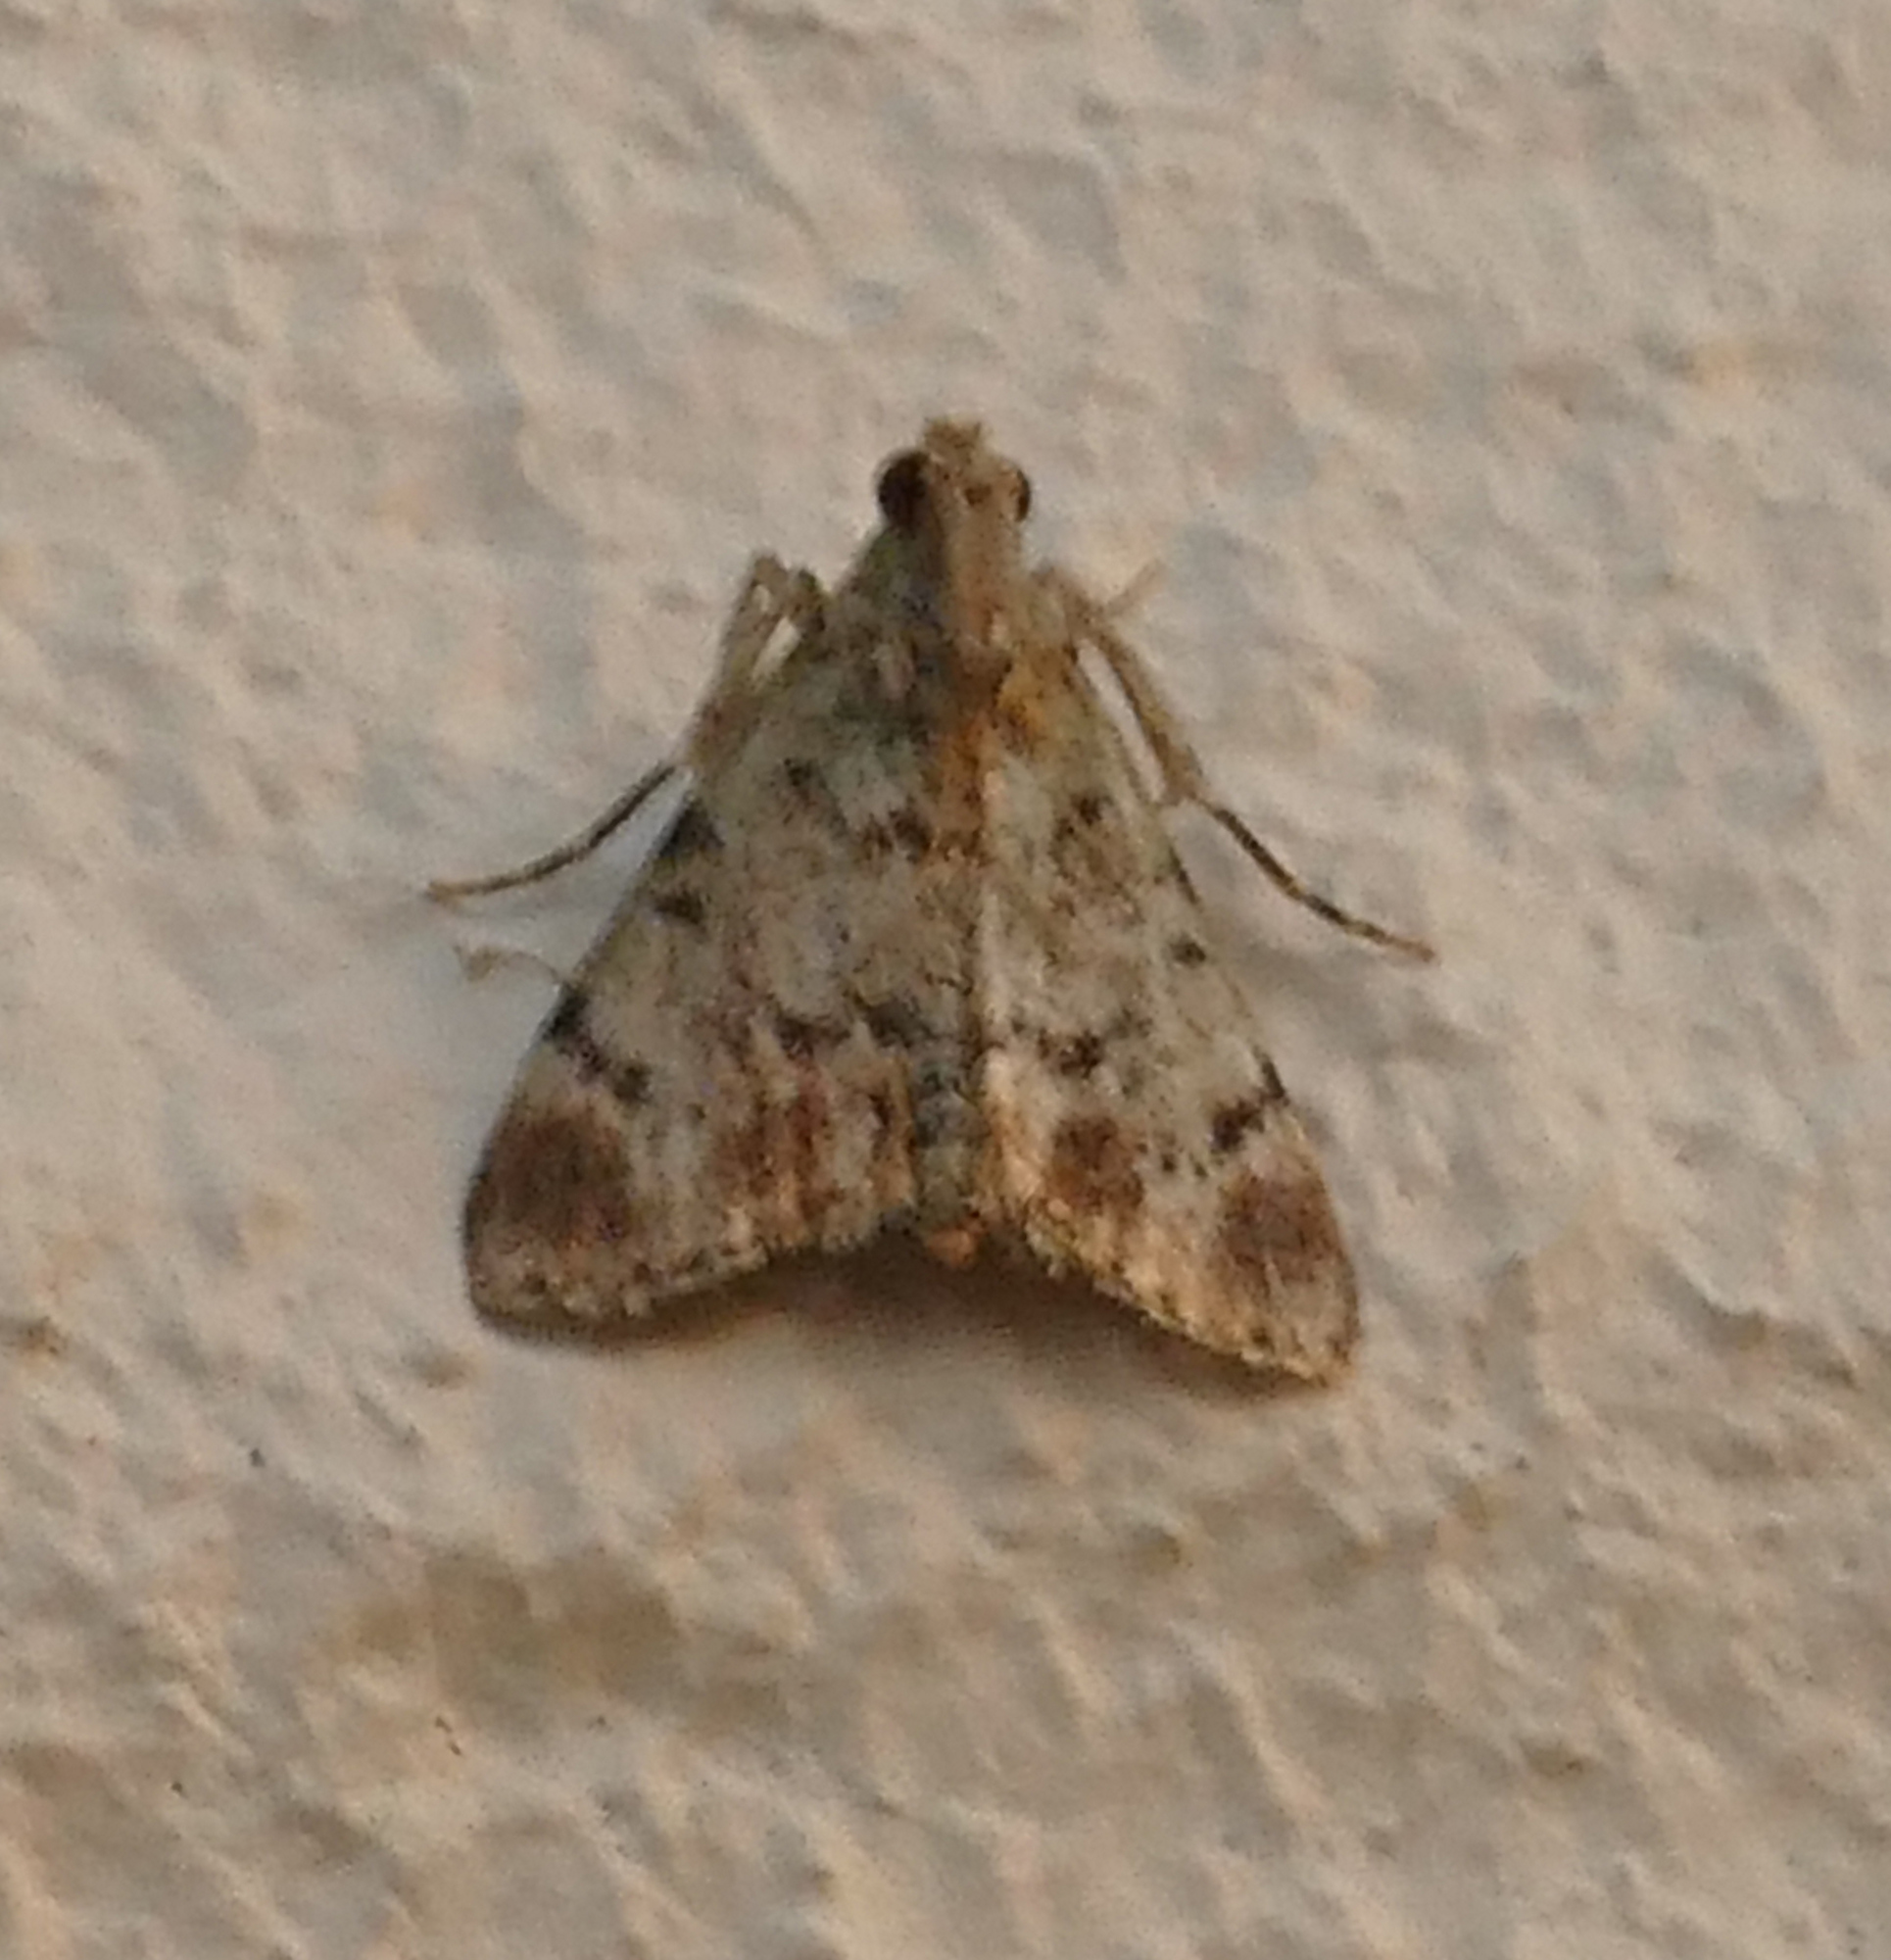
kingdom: Animalia
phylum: Arthropoda
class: Insecta
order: Lepidoptera
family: Pyralidae
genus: Epipaschia
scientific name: Epipaschia superatalis
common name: Dimorphic macalla moth
